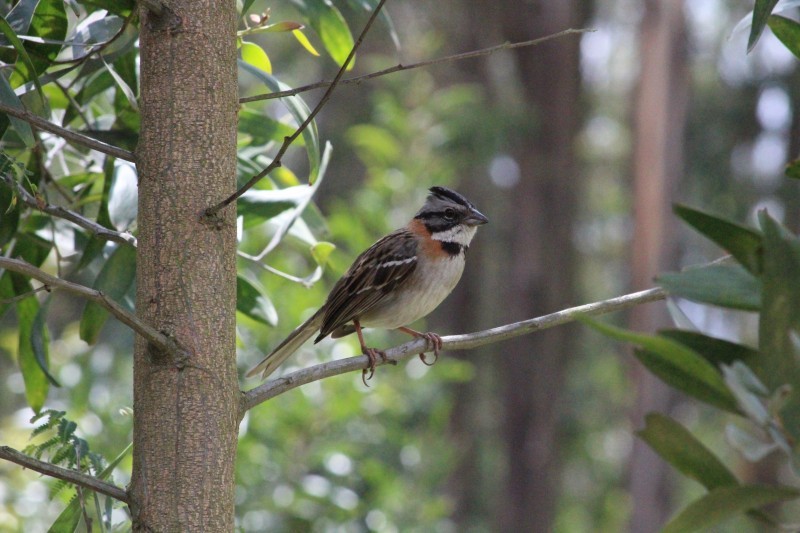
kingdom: Animalia
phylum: Chordata
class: Aves
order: Passeriformes
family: Passerellidae
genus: Zonotrichia
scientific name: Zonotrichia capensis
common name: Rufous-collared sparrow
